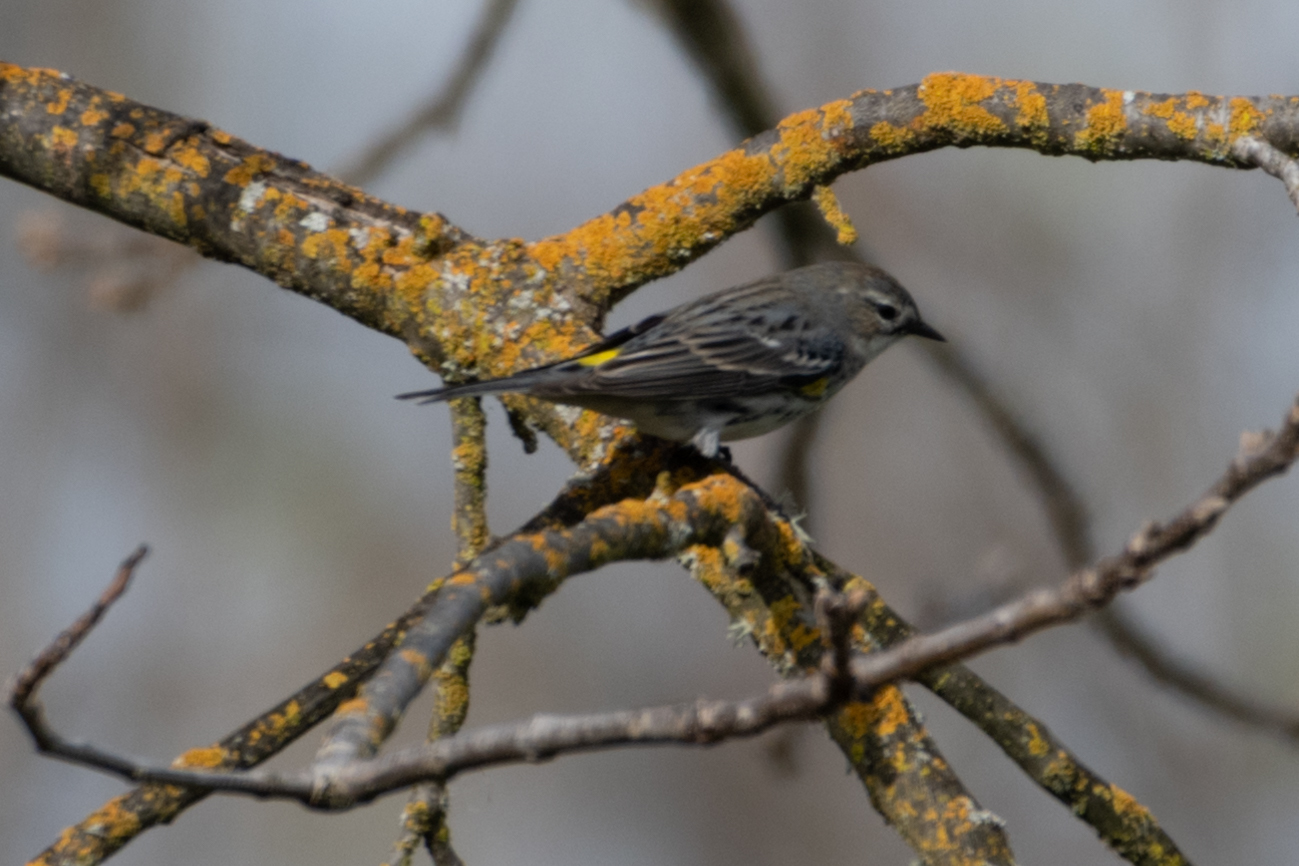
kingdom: Animalia
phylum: Chordata
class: Aves
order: Passeriformes
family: Parulidae
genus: Setophaga
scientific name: Setophaga coronata
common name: Myrtle warbler
